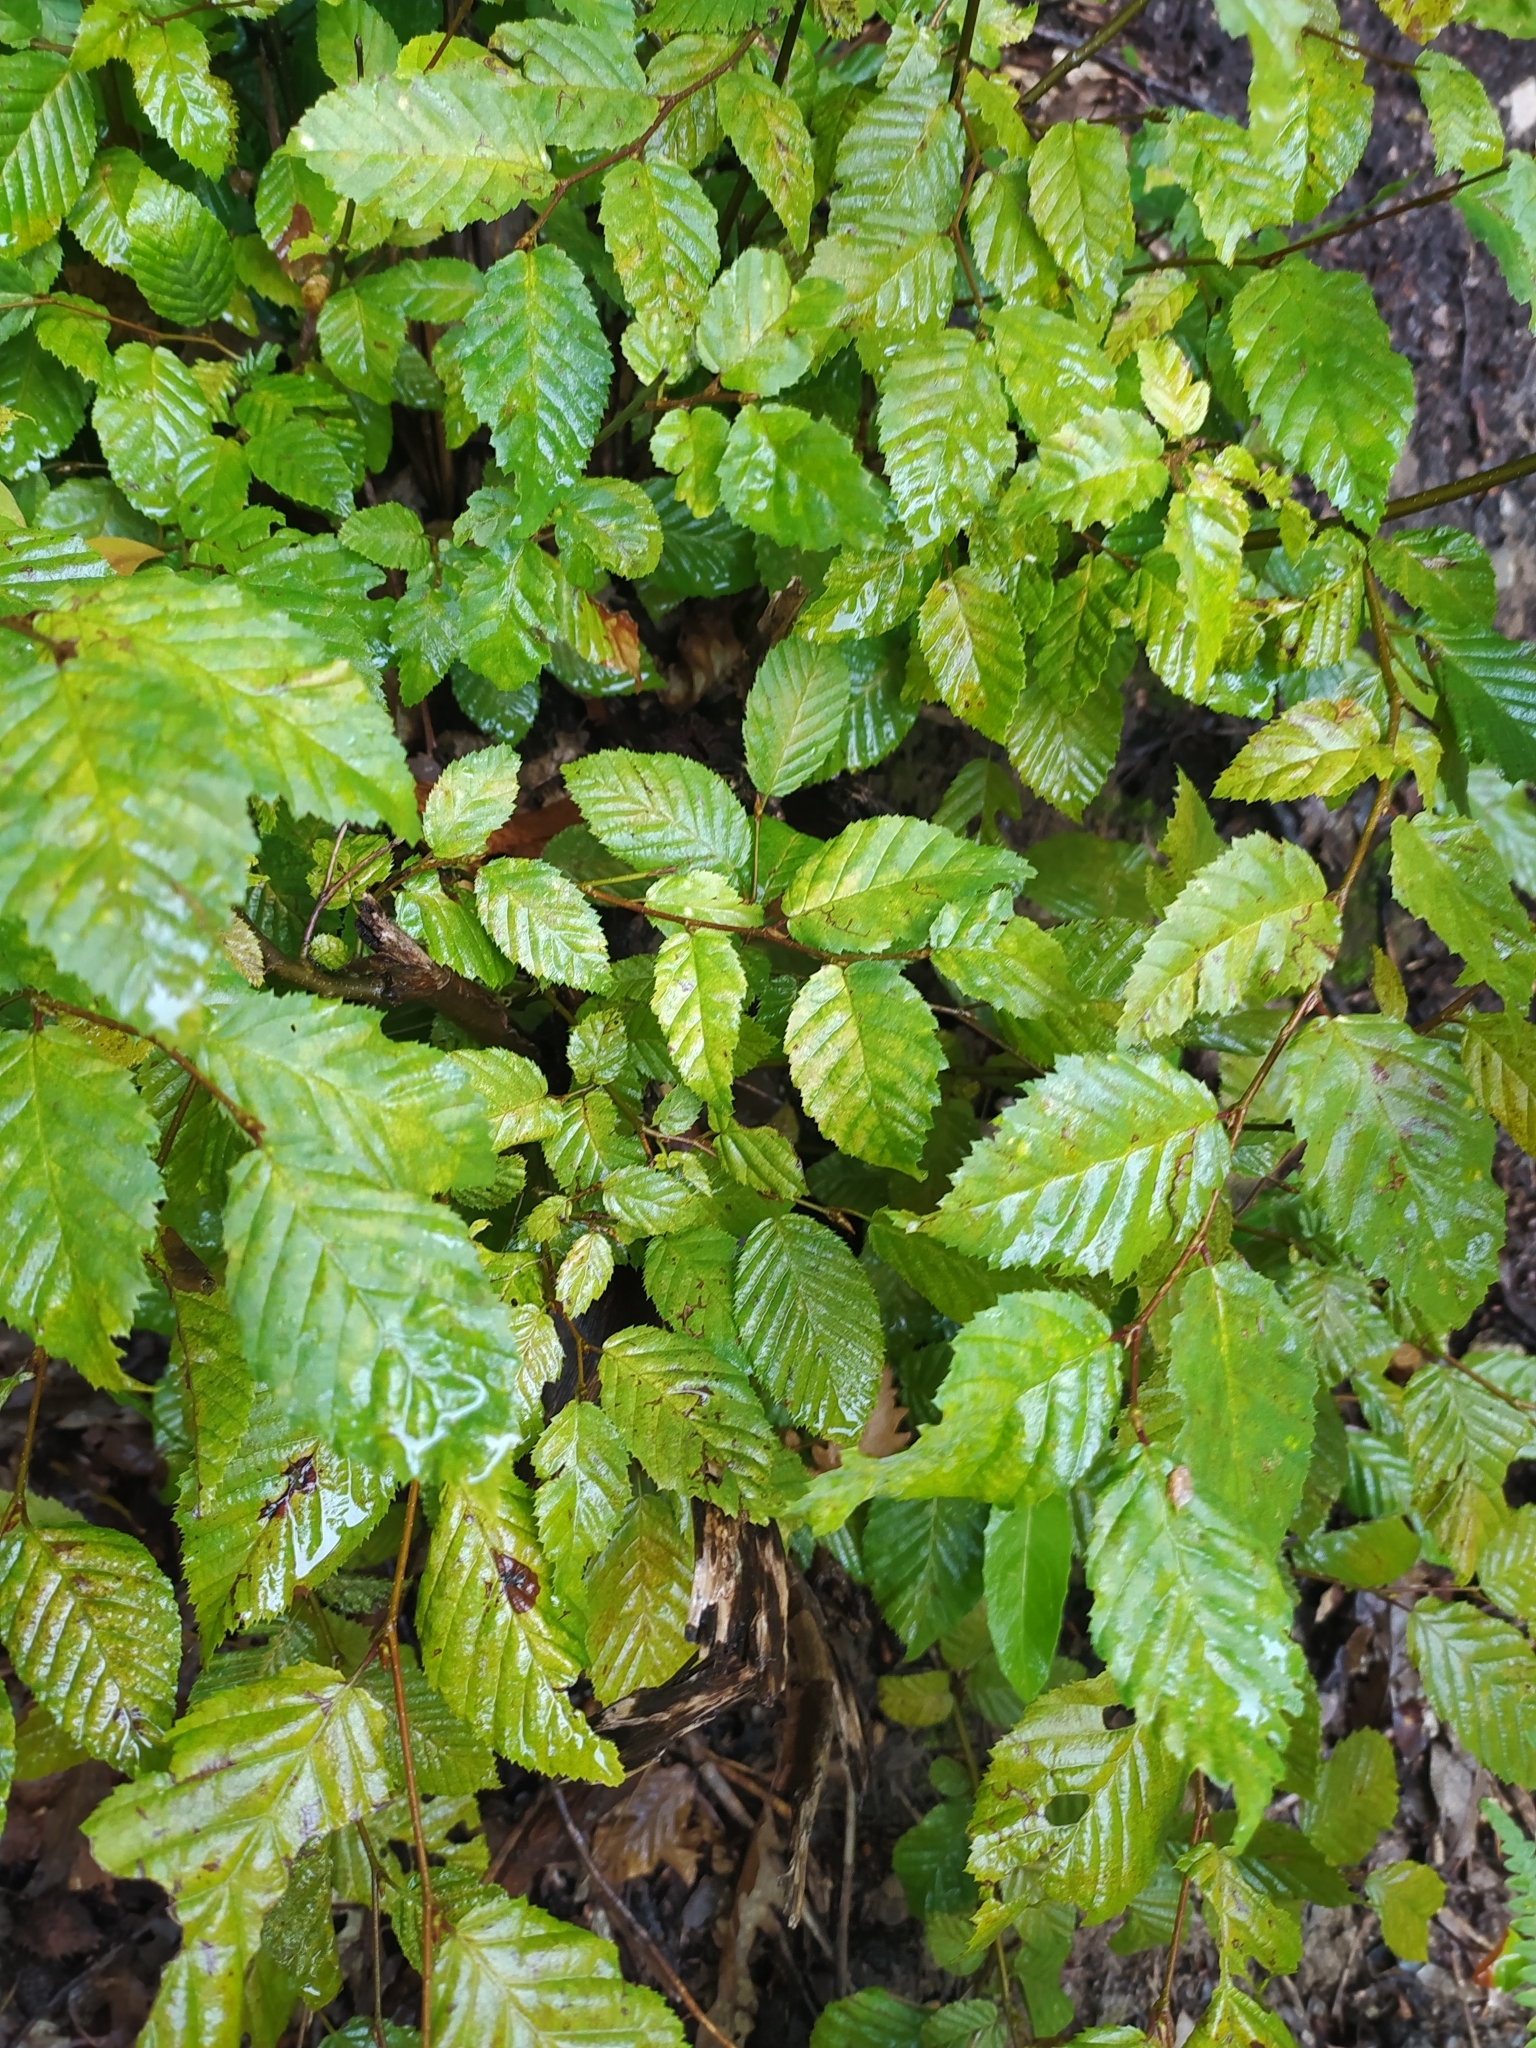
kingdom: Plantae
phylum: Tracheophyta
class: Magnoliopsida
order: Fagales
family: Betulaceae
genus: Carpinus
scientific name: Carpinus betulus
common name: Hornbeam
